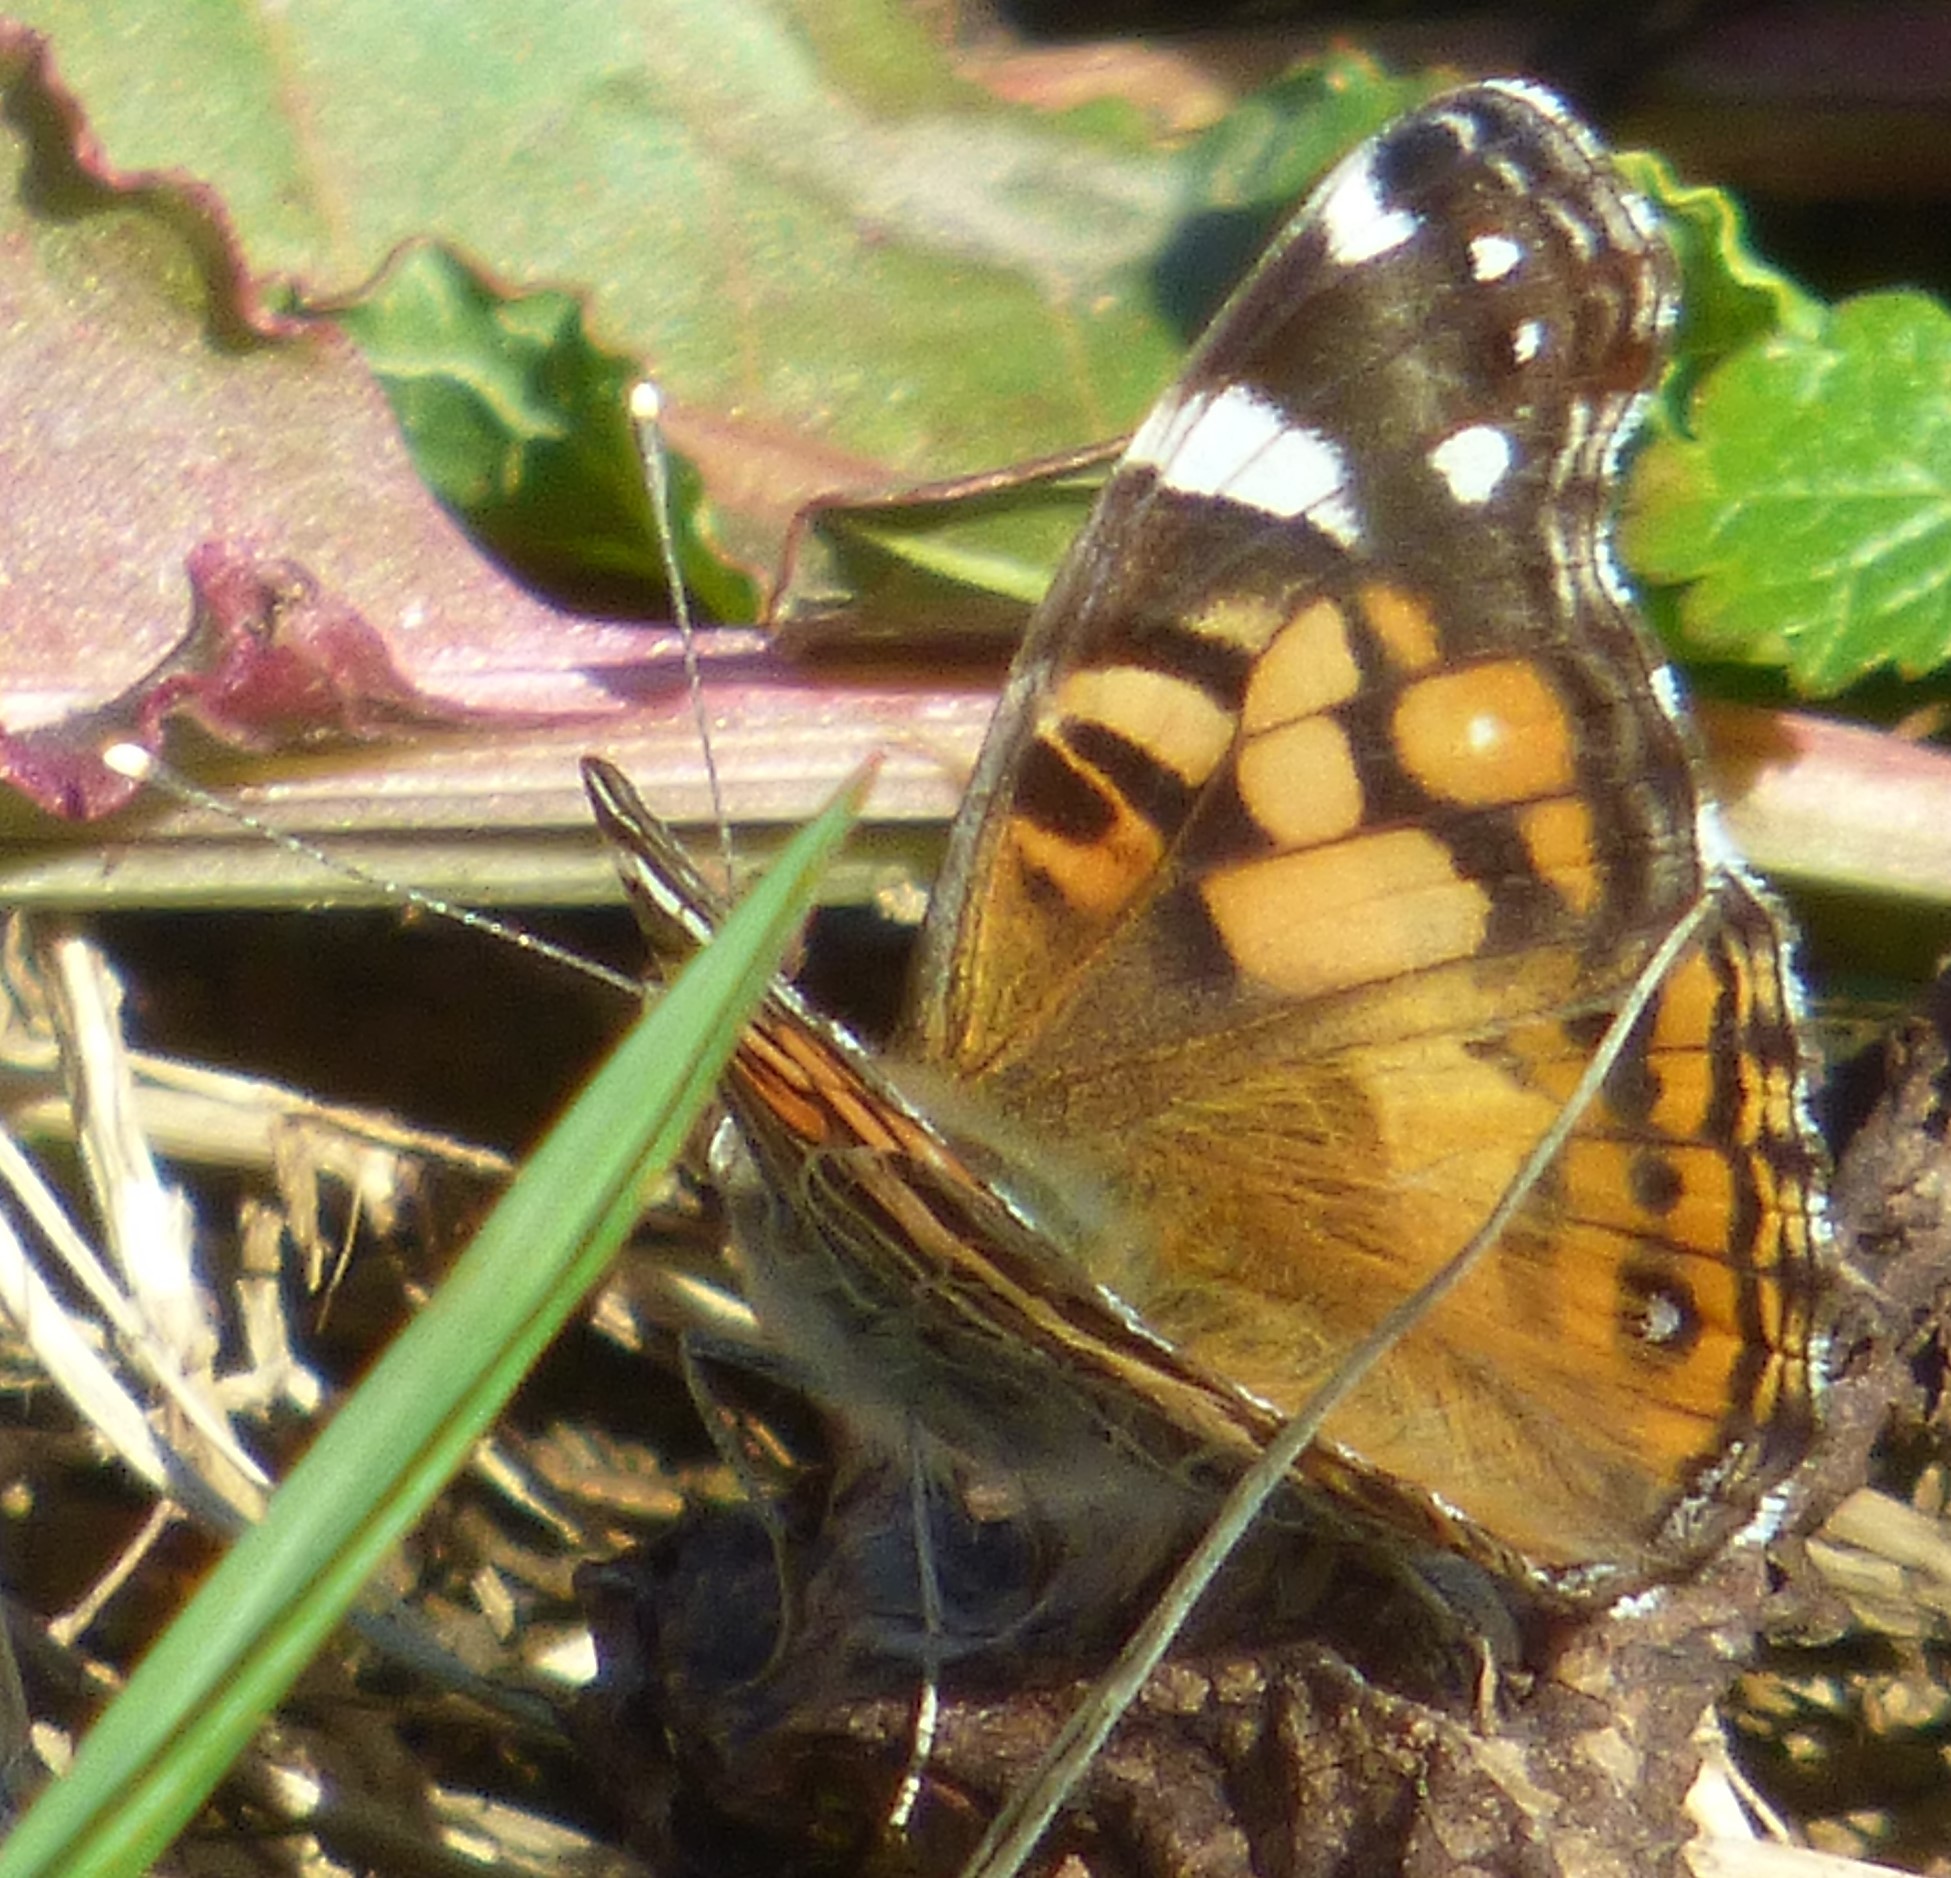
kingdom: Animalia
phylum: Arthropoda
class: Insecta
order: Lepidoptera
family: Nymphalidae
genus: Vanessa
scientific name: Vanessa virginiensis
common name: American lady
